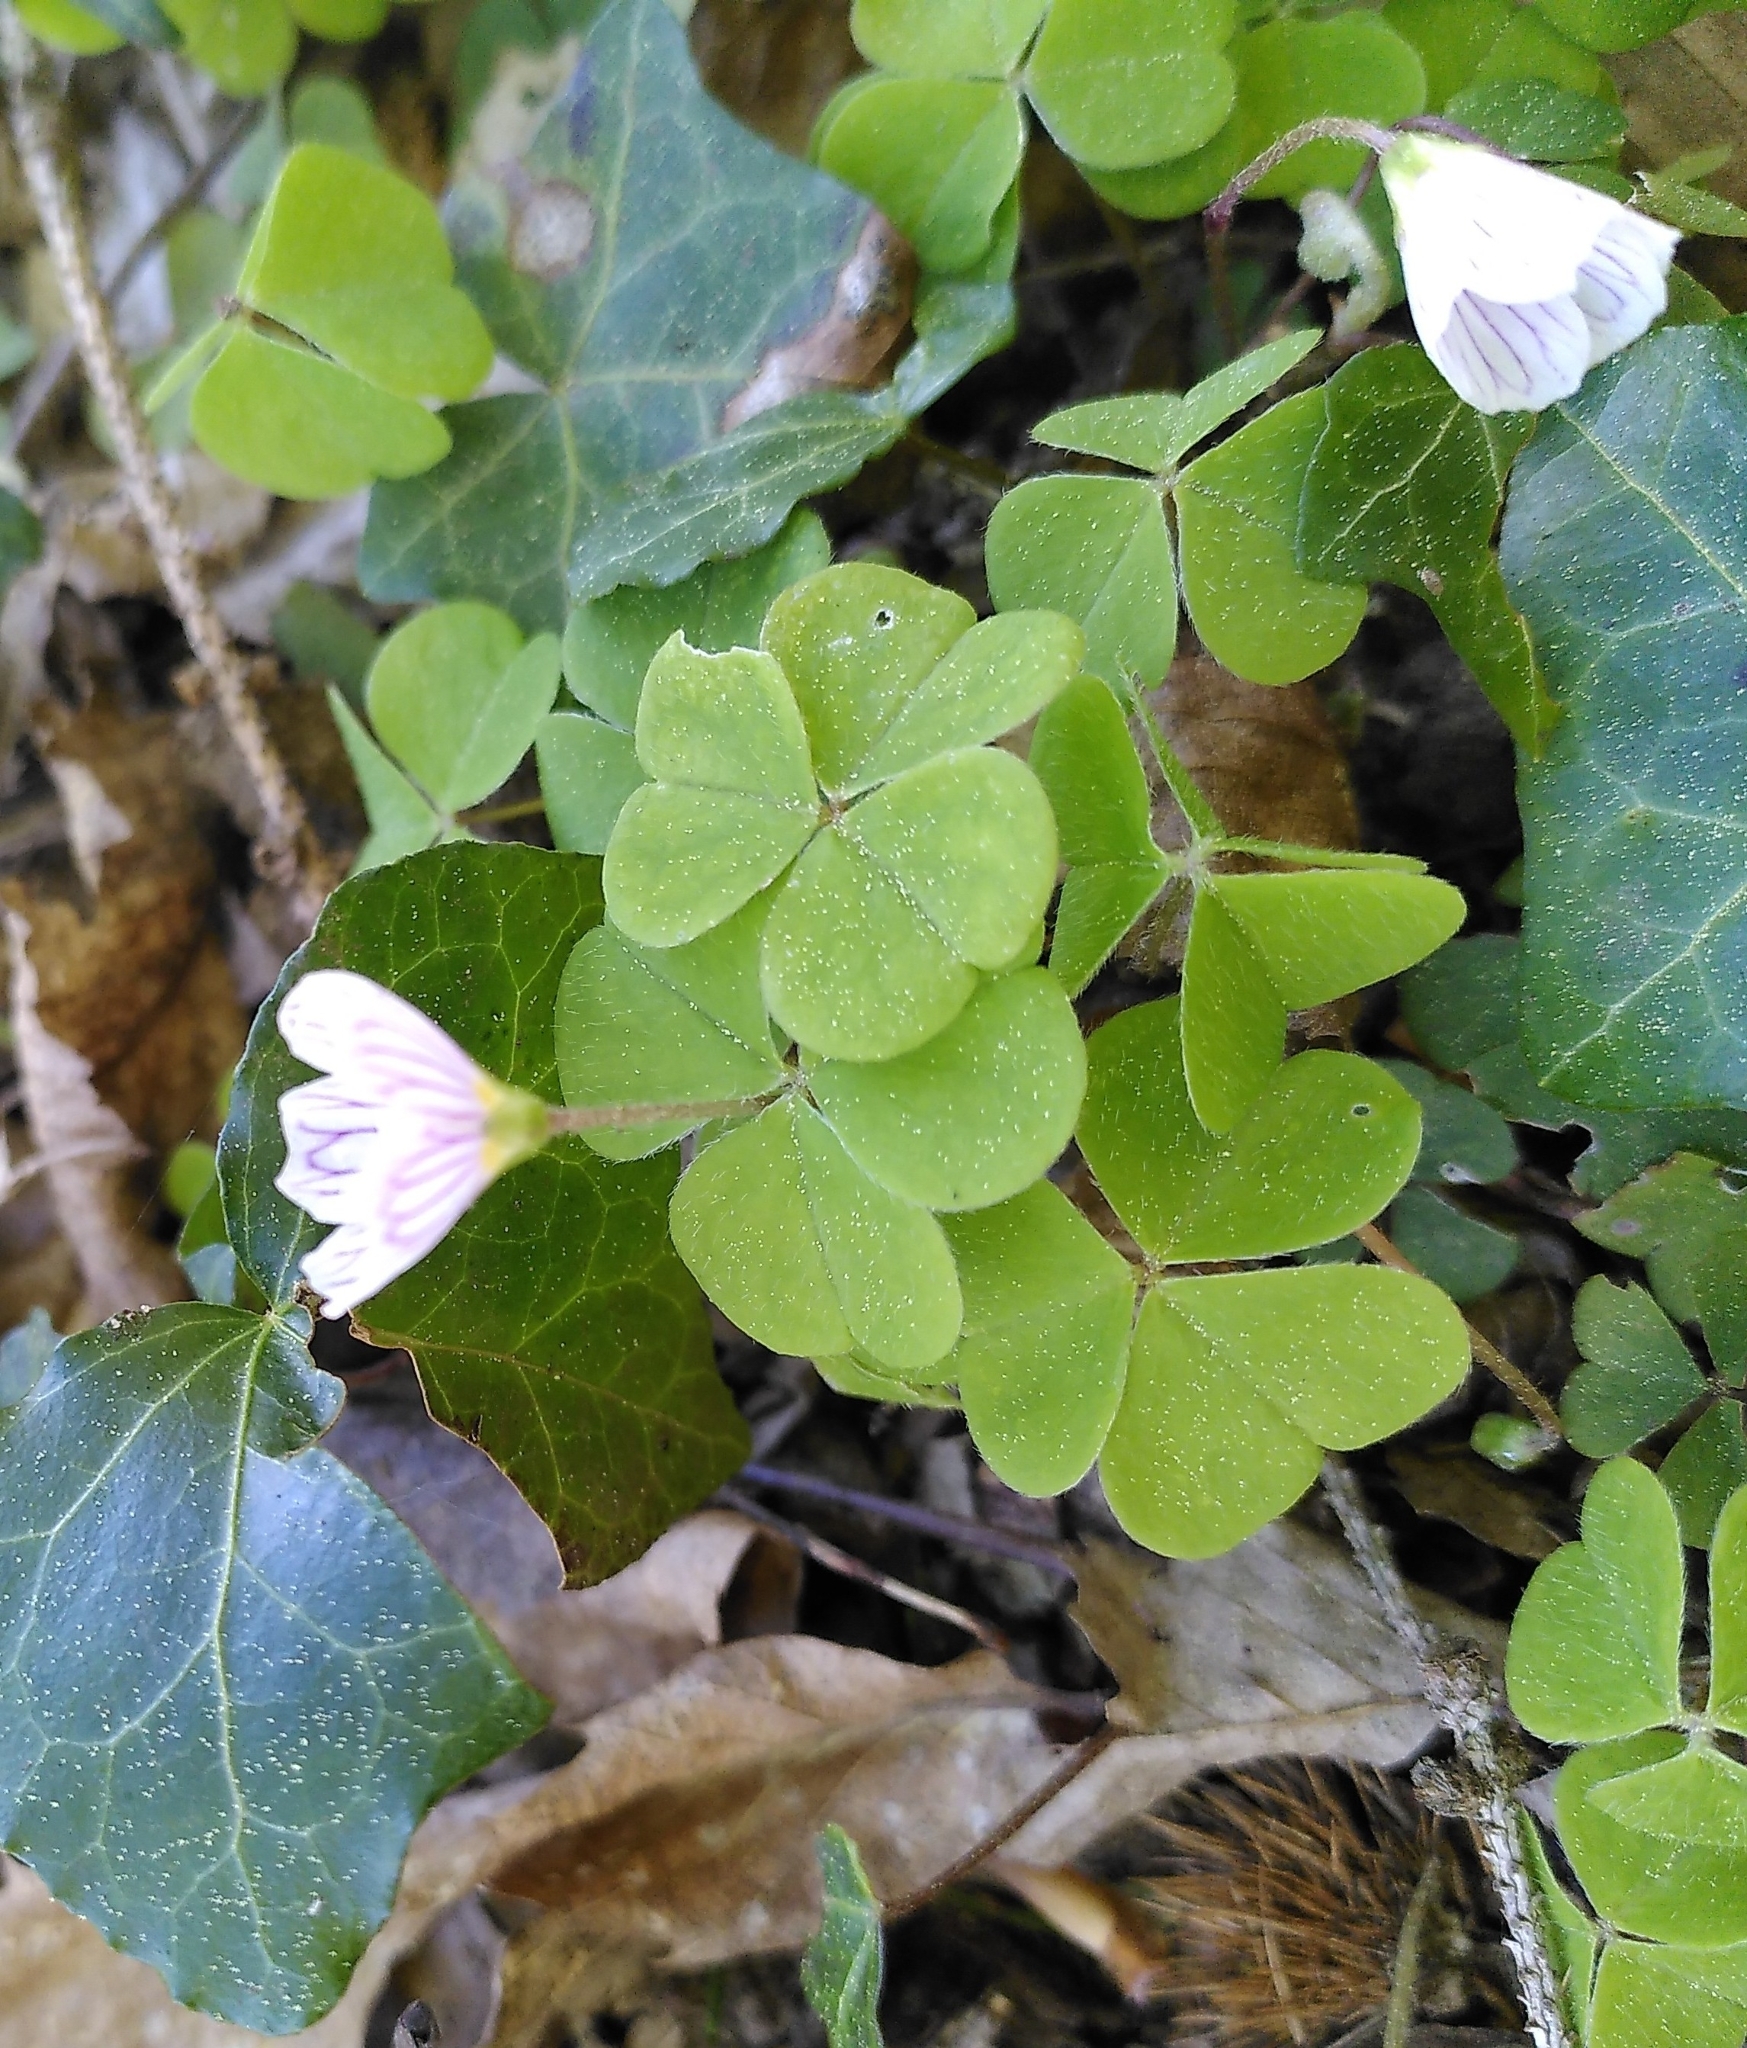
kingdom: Plantae
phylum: Tracheophyta
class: Magnoliopsida
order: Oxalidales
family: Oxalidaceae
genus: Oxalis
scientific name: Oxalis acetosella
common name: Wood-sorrel
